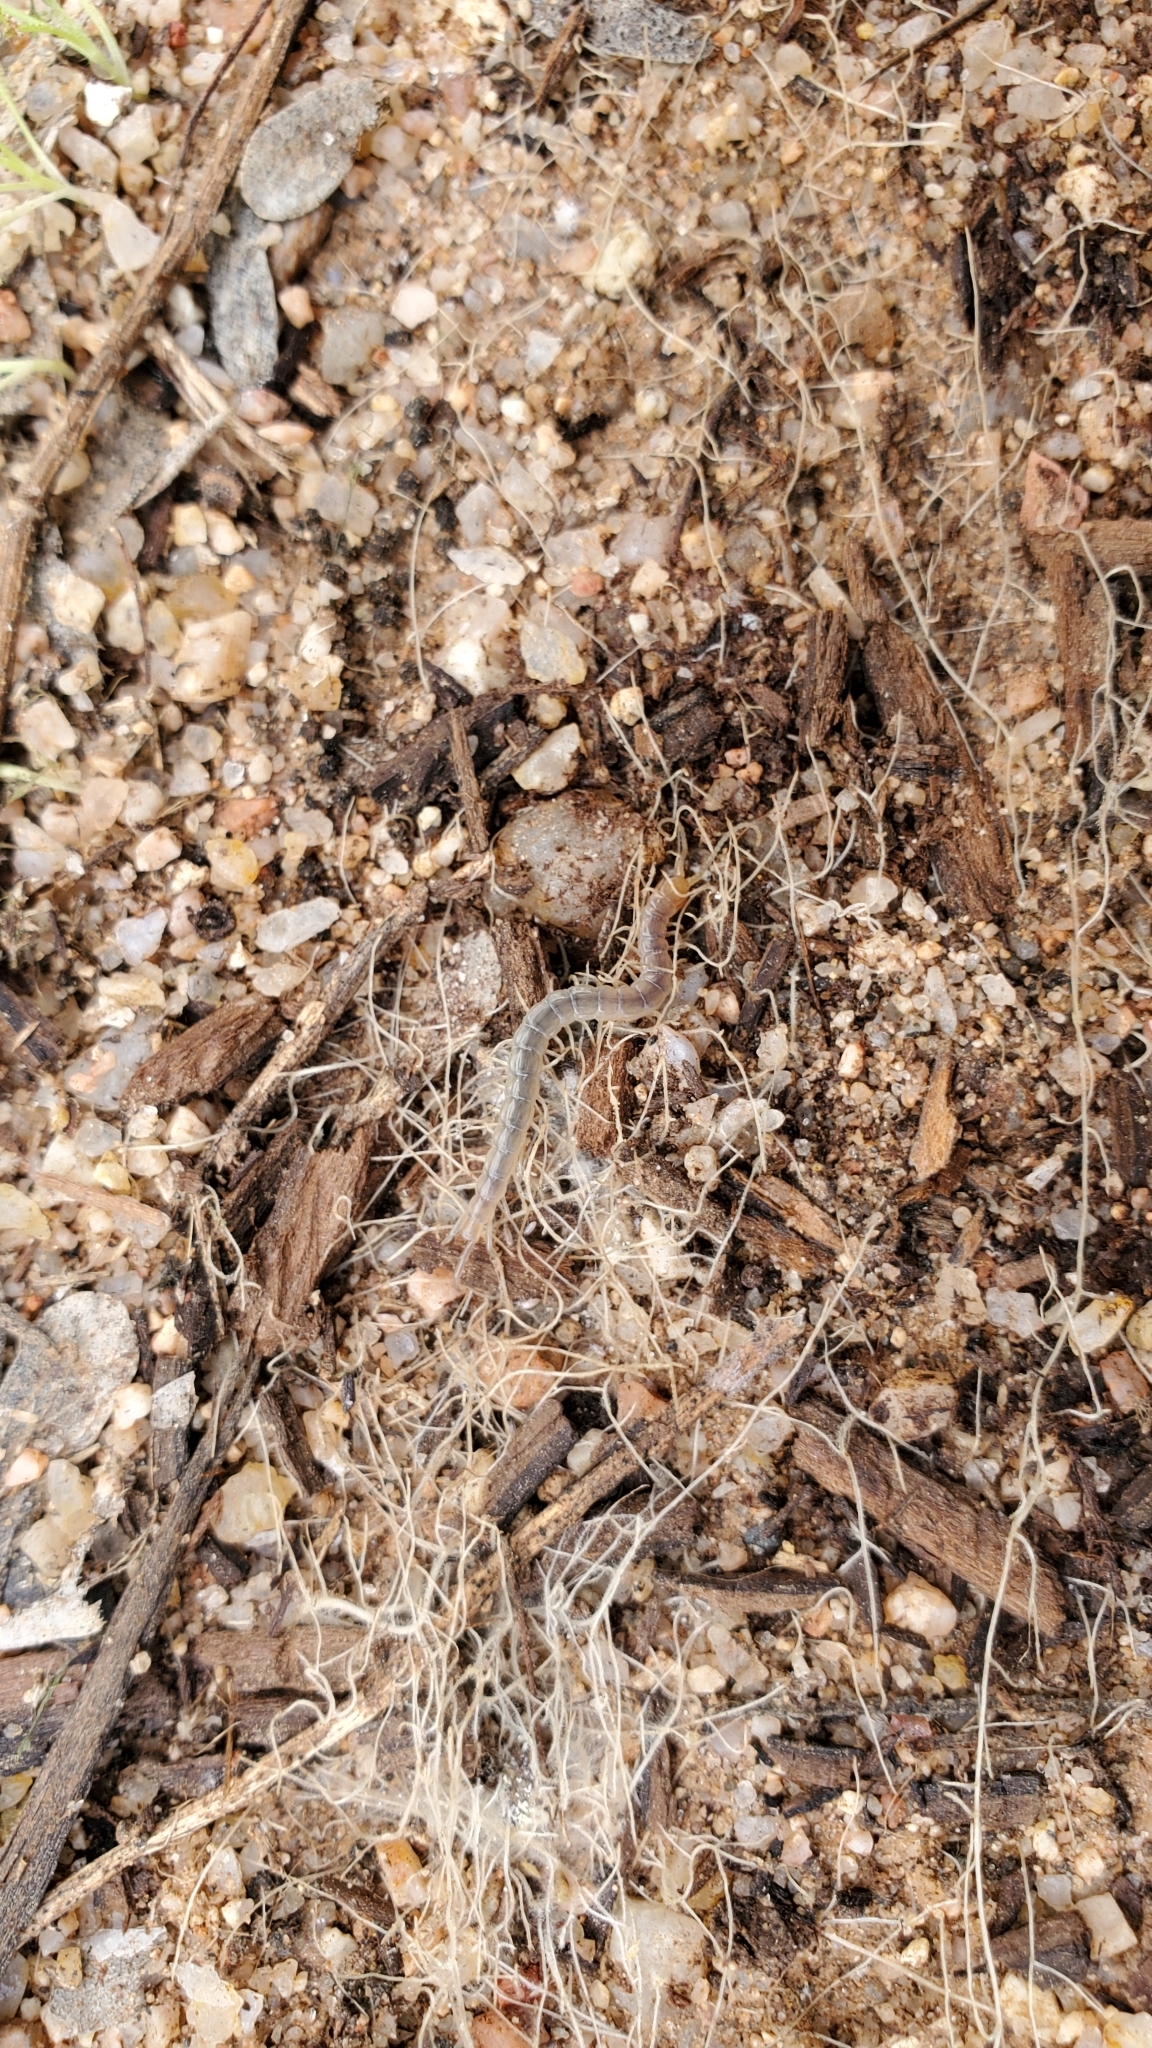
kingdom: Animalia
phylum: Arthropoda
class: Chilopoda
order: Scolopendromorpha
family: Scolopendridae
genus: Scolopendra
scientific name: Scolopendra polymorpha
